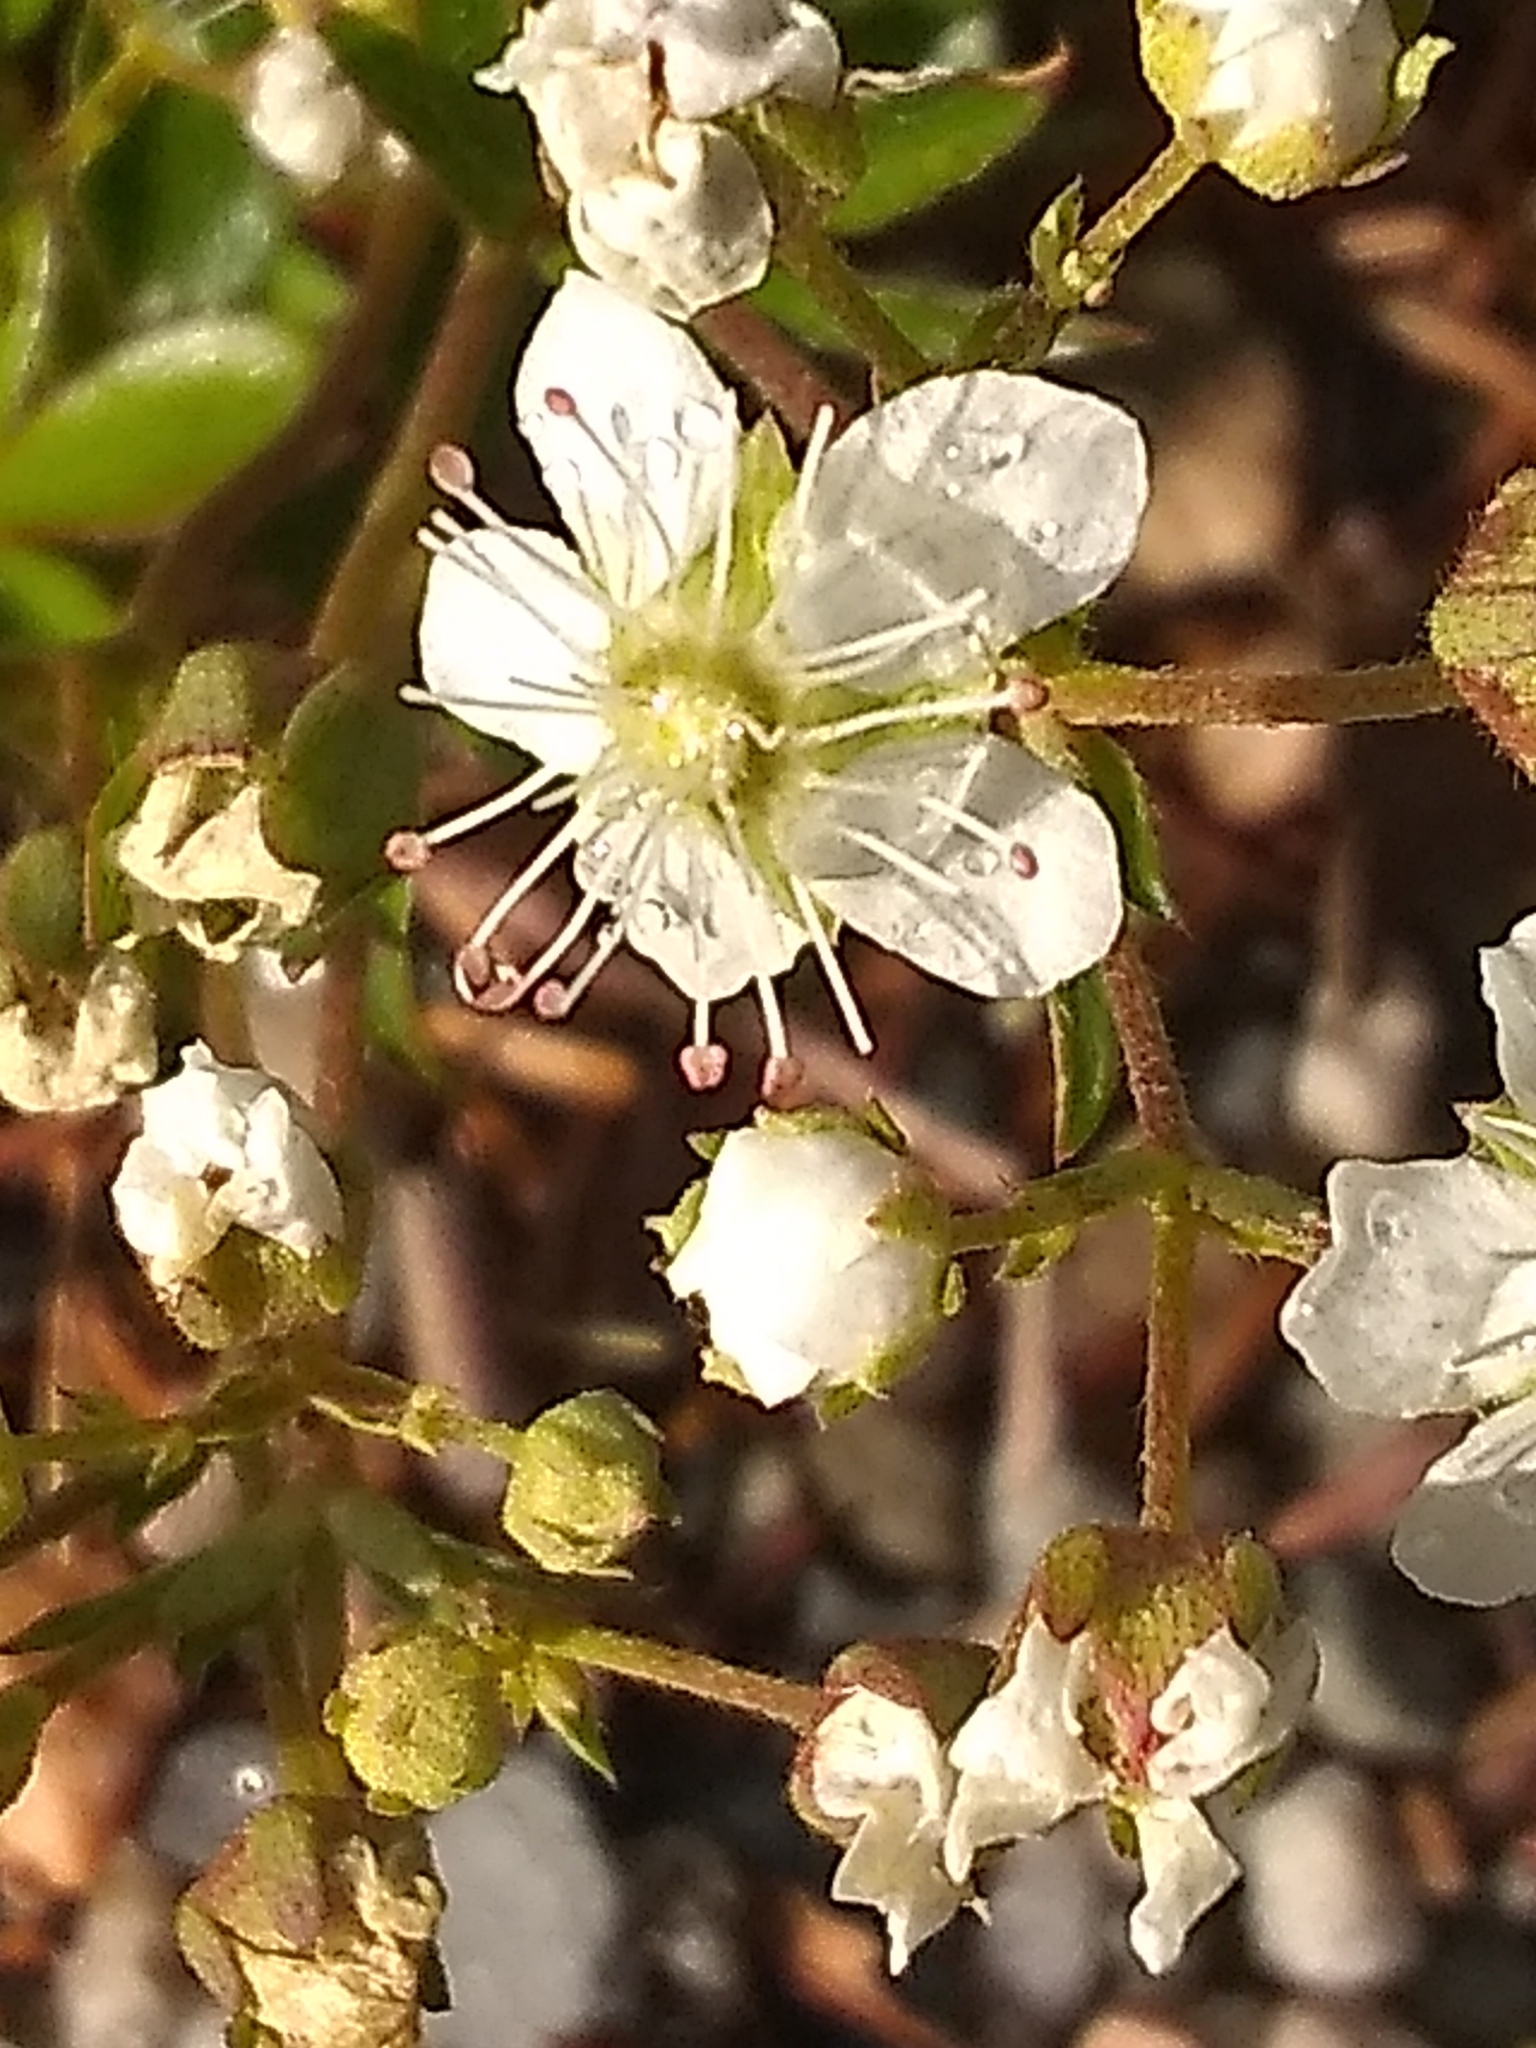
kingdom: Plantae
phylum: Tracheophyta
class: Magnoliopsida
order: Rosales
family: Rosaceae
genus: Sibbaldia
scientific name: Sibbaldia tridentata
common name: Three-toothed cinquefoil
